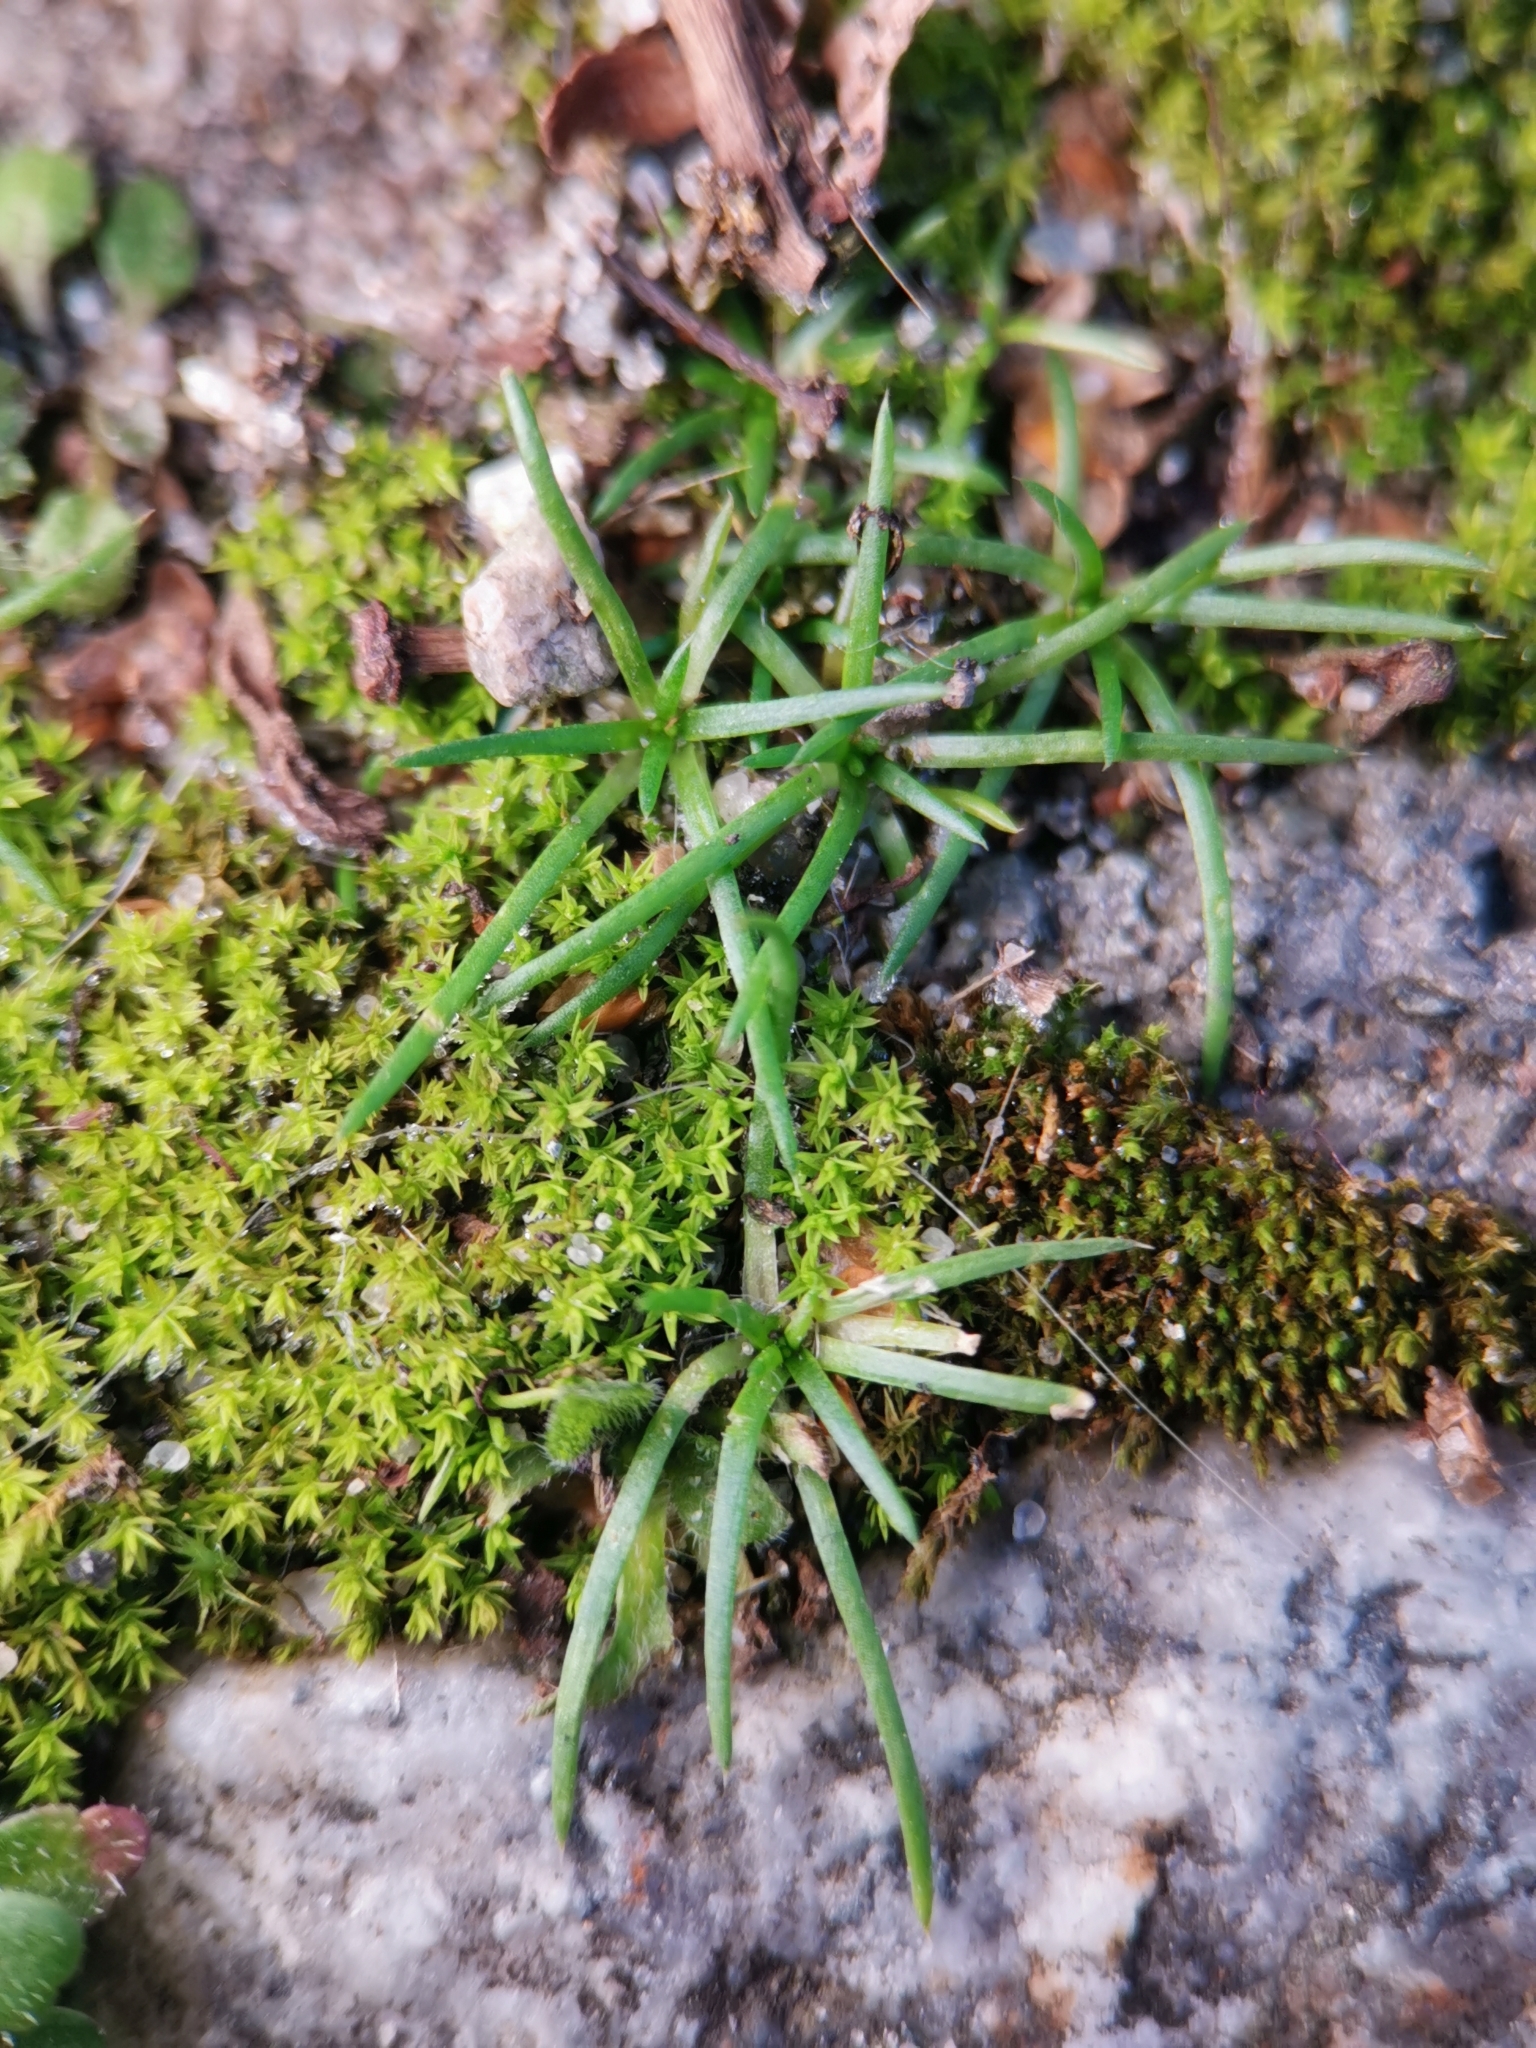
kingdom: Plantae
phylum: Tracheophyta
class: Magnoliopsida
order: Caryophyllales
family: Caryophyllaceae
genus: Sagina
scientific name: Sagina procumbens
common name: Procumbent pearlwort
